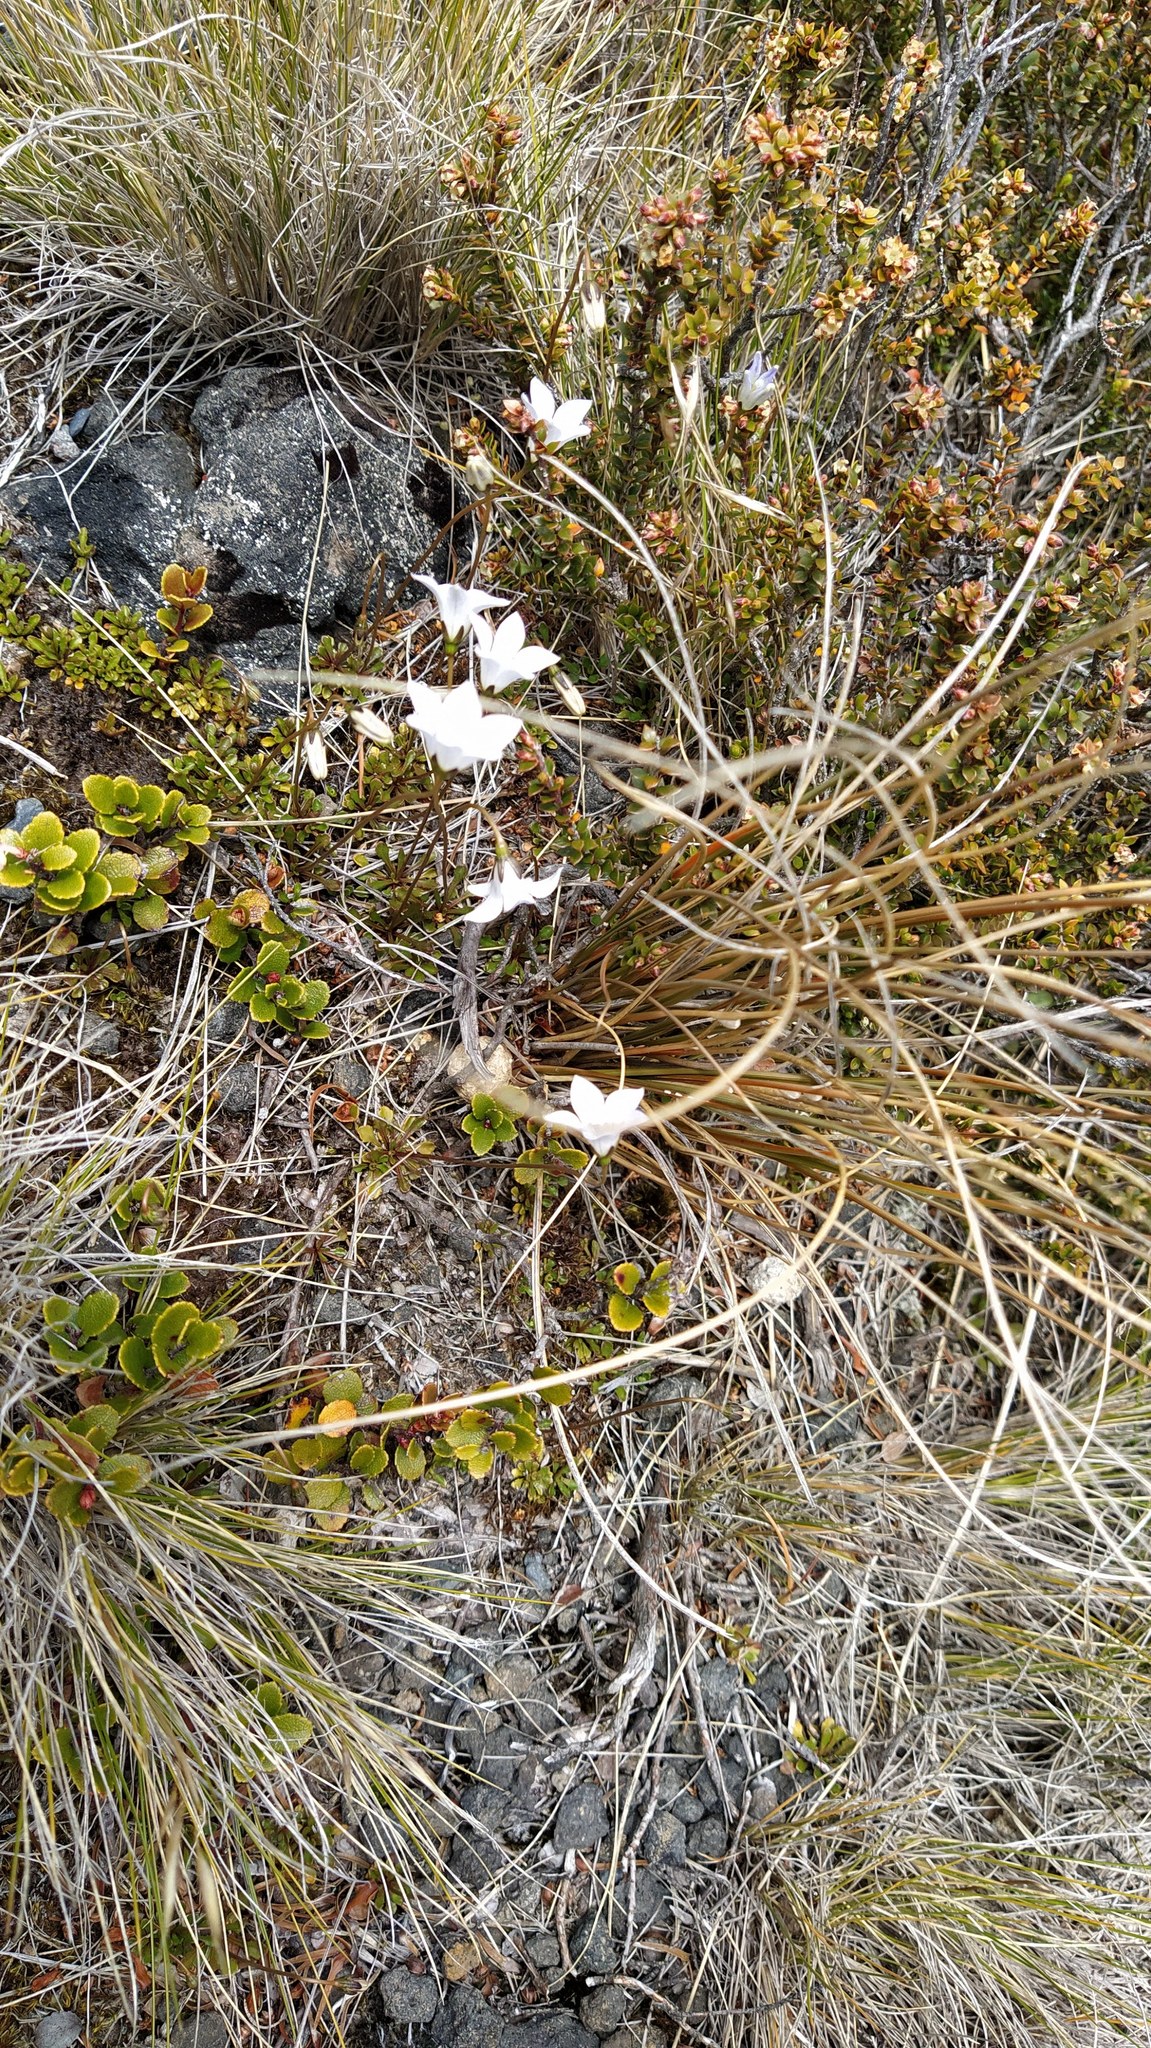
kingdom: Plantae
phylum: Tracheophyta
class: Magnoliopsida
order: Asterales
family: Campanulaceae
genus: Wahlenbergia
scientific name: Wahlenbergia pygmaea
